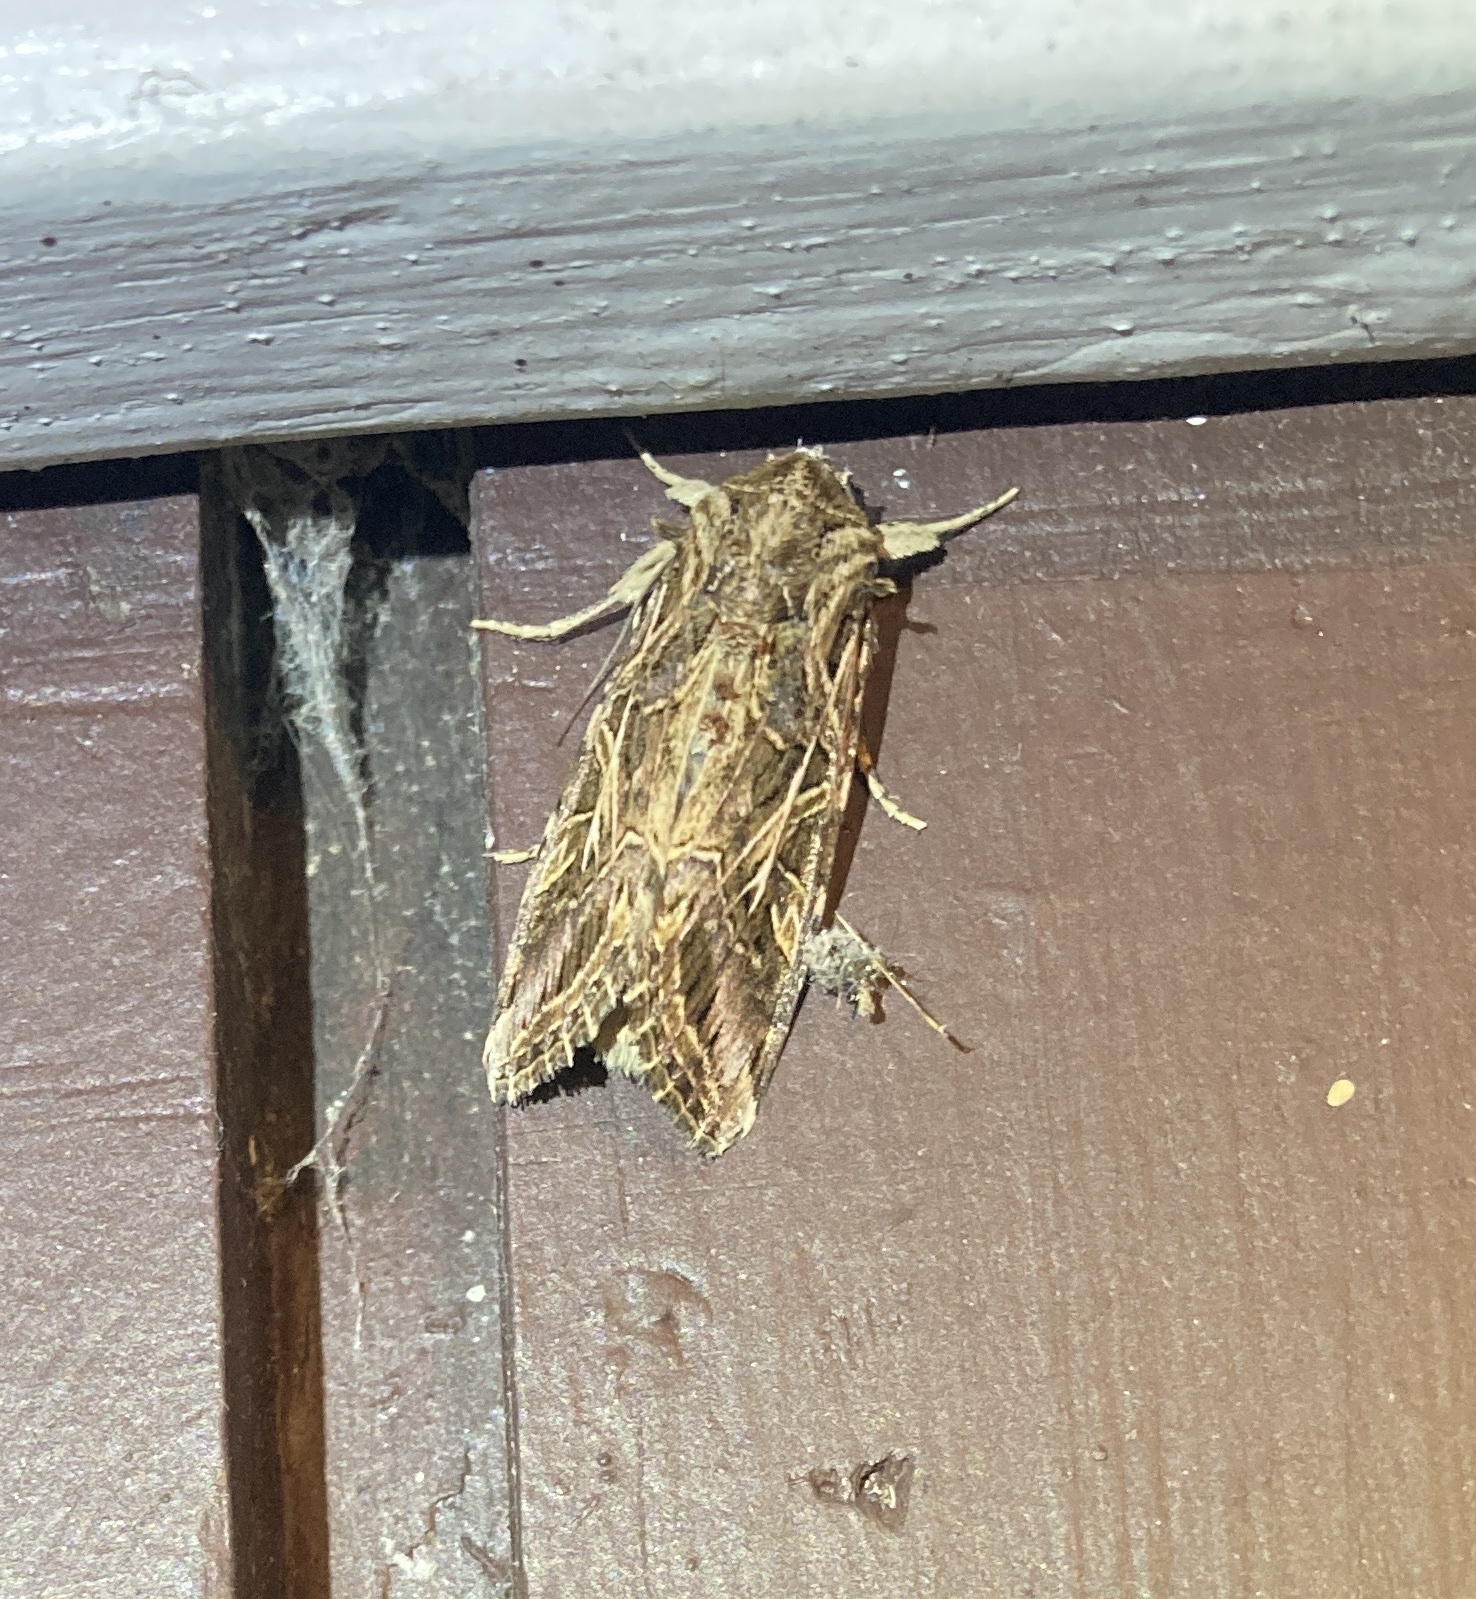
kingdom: Animalia
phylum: Arthropoda
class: Insecta
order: Lepidoptera
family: Noctuidae
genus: Spodoptera
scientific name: Spodoptera litura
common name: Asian cotton leafworm
